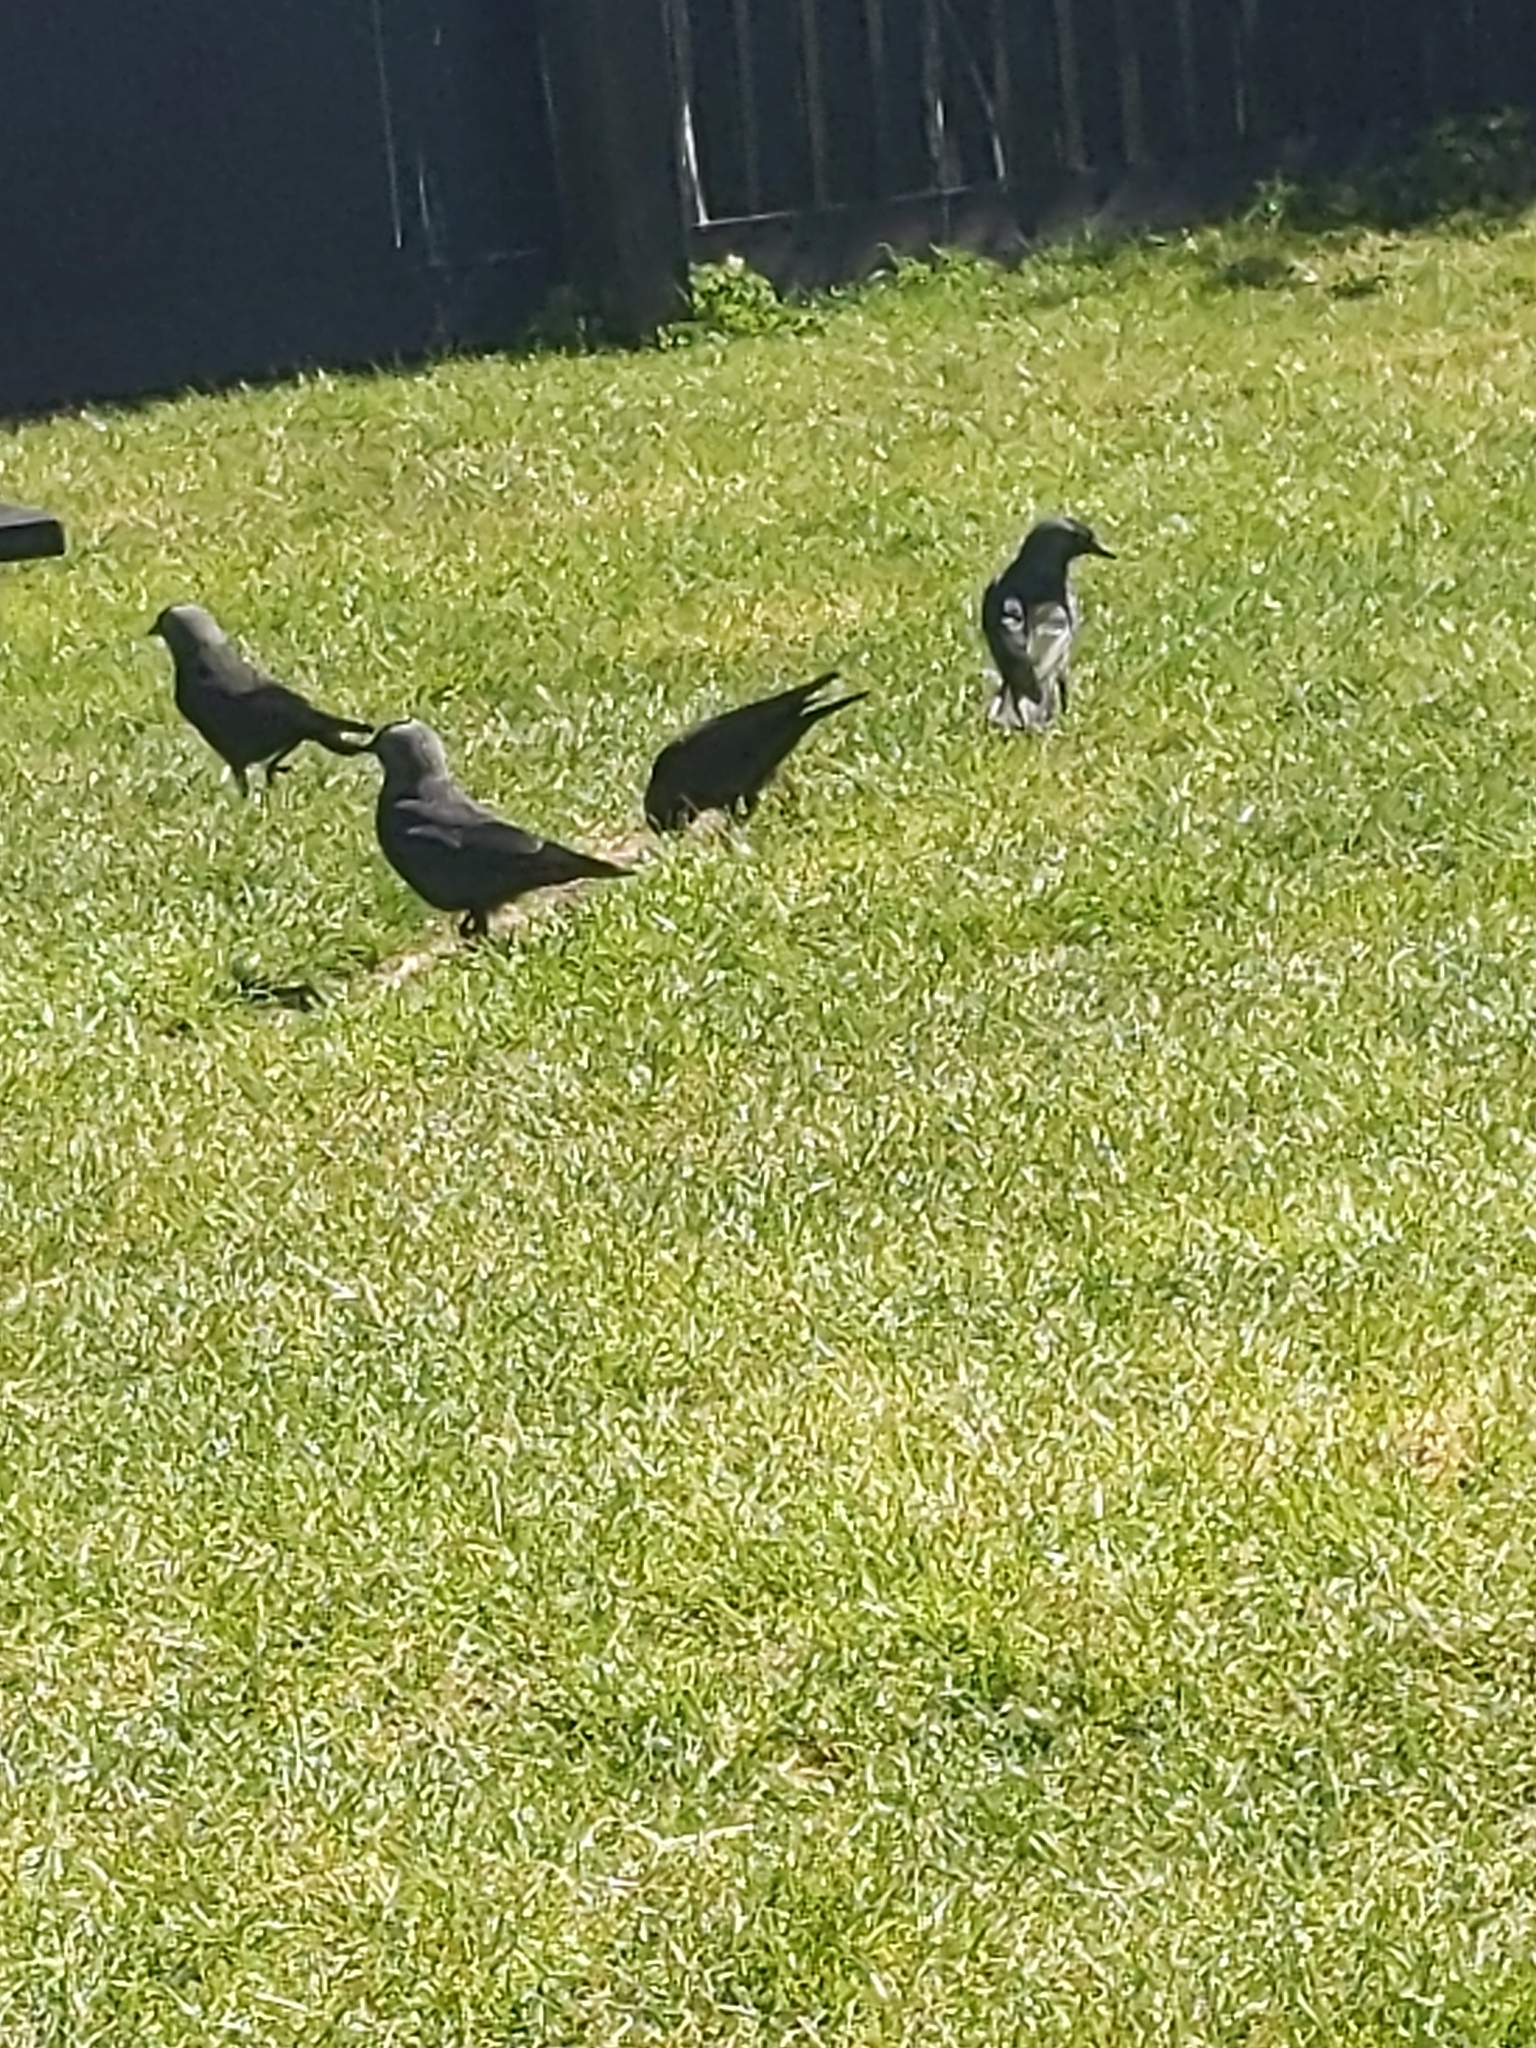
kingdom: Animalia
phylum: Chordata
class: Aves
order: Passeriformes
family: Corvidae
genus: Coloeus
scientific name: Coloeus monedula
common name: Western jackdaw
